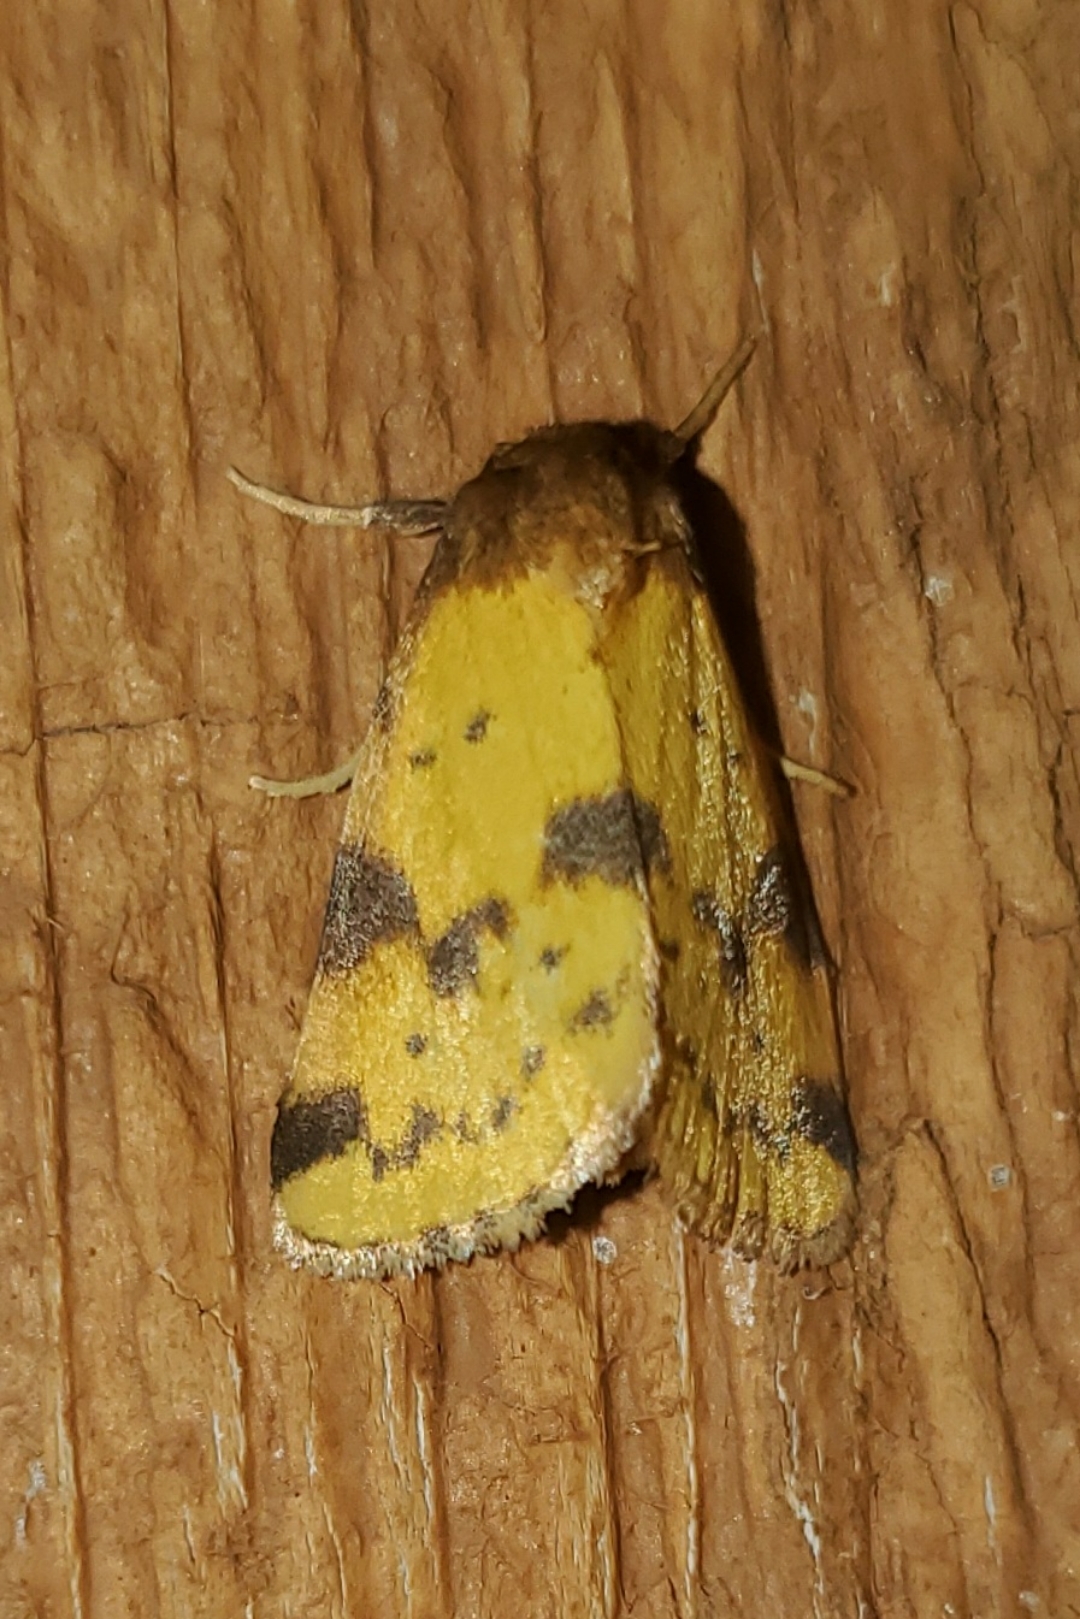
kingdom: Animalia
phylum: Arthropoda
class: Insecta
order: Lepidoptera
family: Noctuidae
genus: Azenia
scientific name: Azenia obtusa
